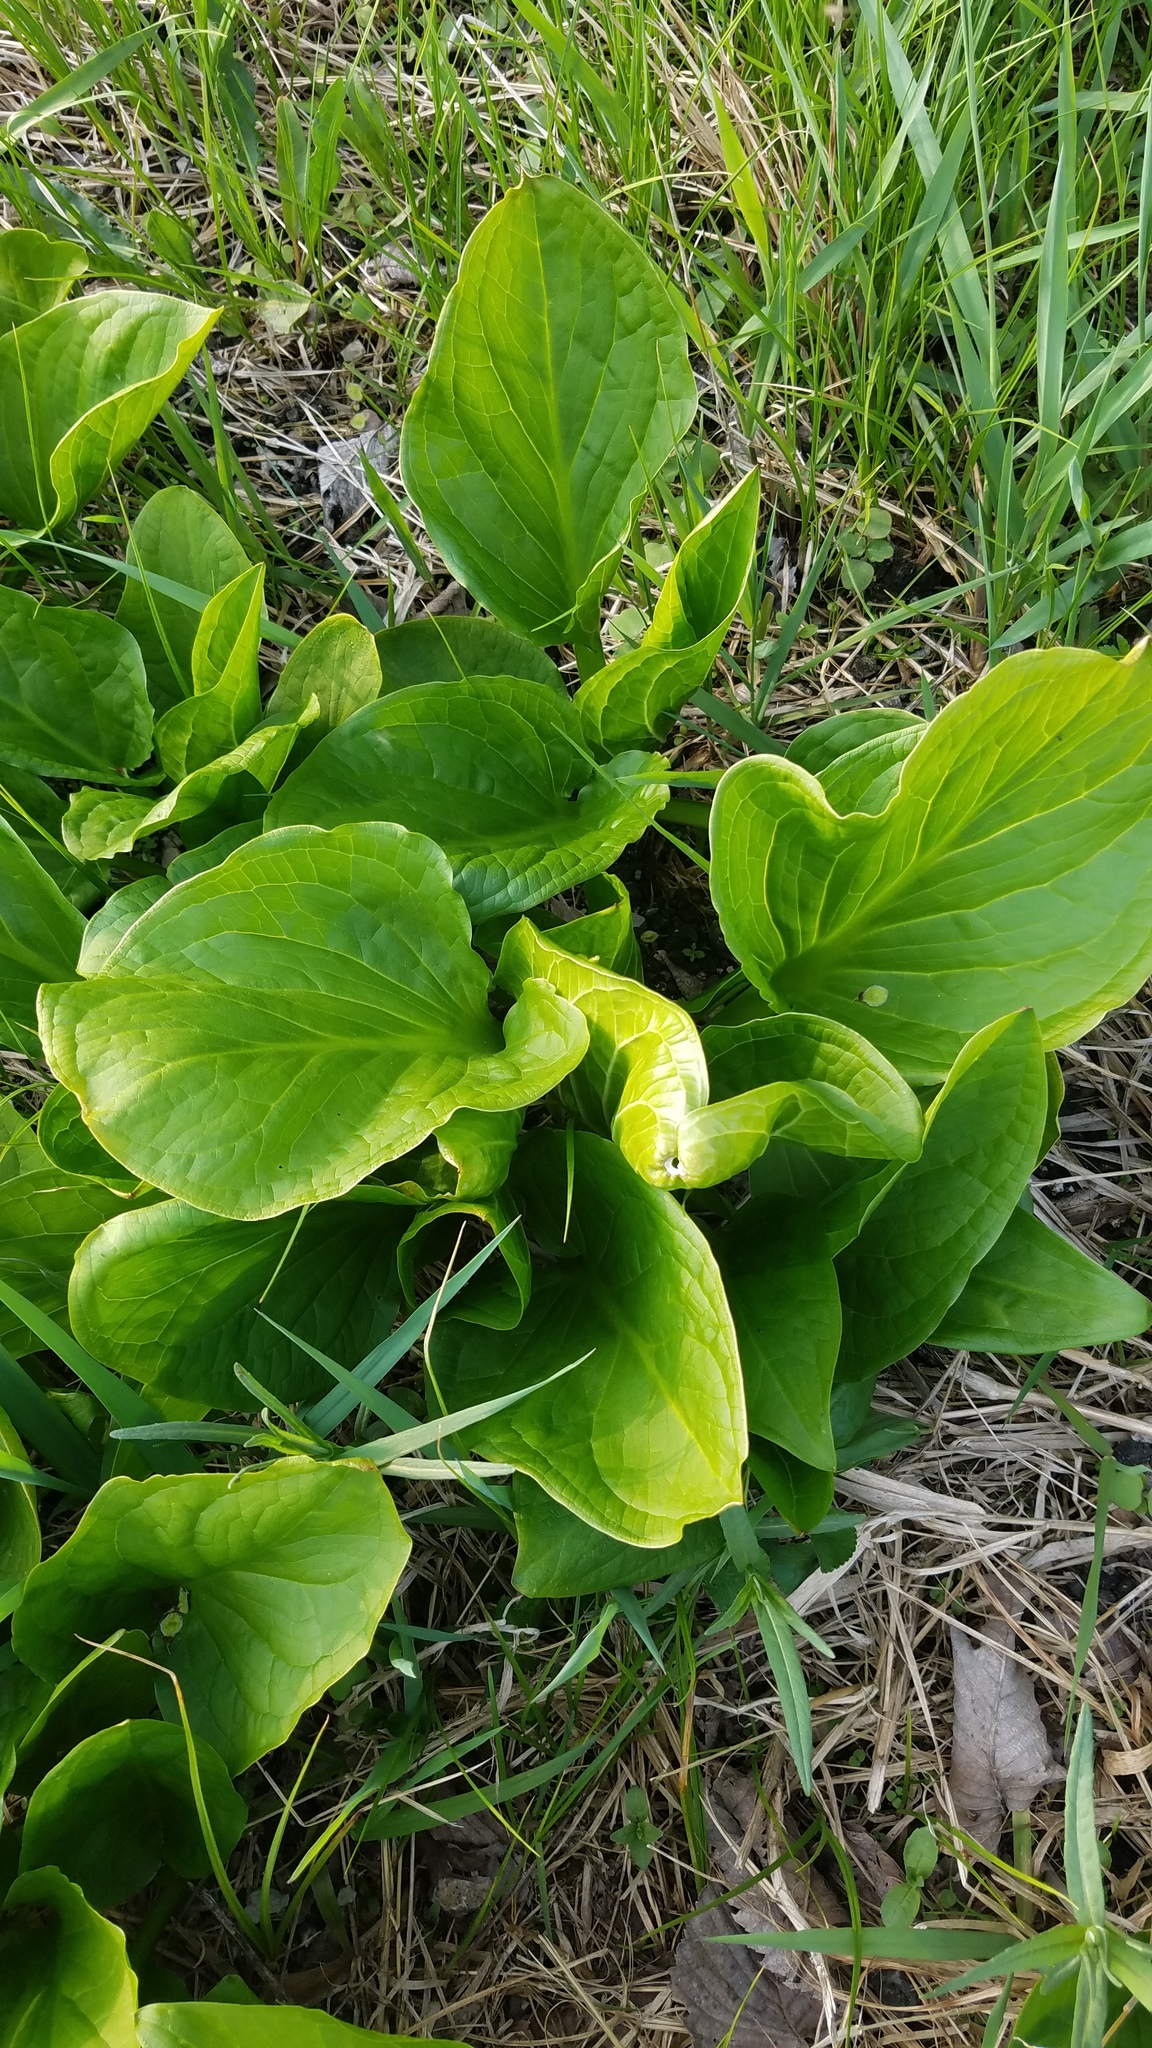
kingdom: Plantae
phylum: Tracheophyta
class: Liliopsida
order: Alismatales
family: Araceae
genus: Symplocarpus
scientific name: Symplocarpus foetidus
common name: Eastern skunk cabbage
